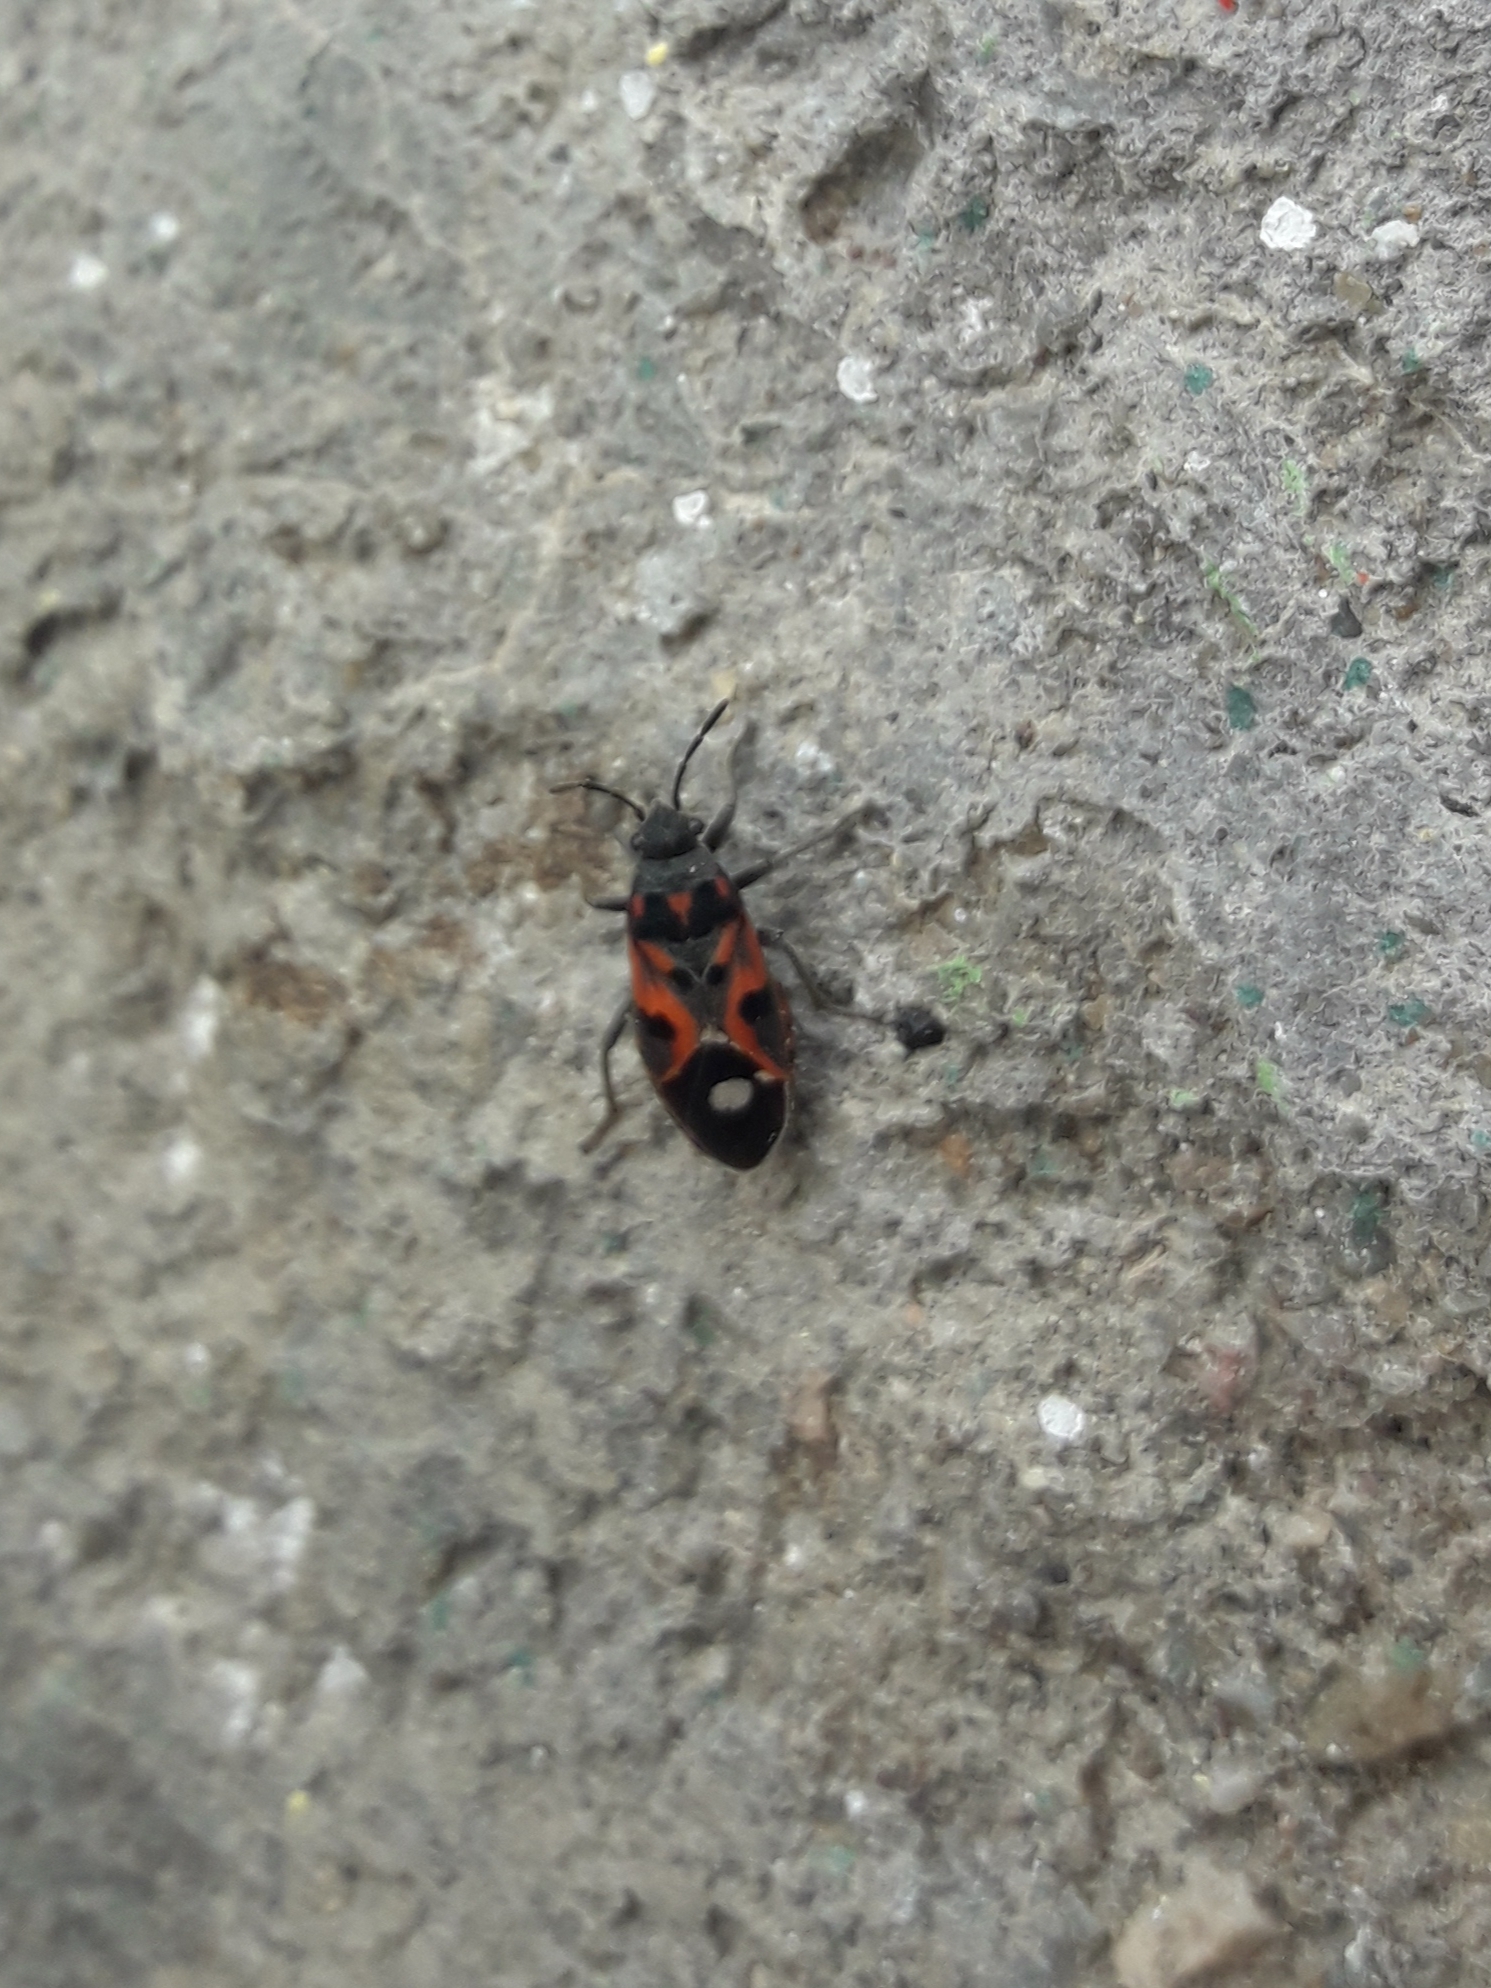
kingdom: Animalia
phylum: Arthropoda
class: Insecta
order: Hemiptera
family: Lygaeidae
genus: Lygaeus
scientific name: Lygaeus mauli
